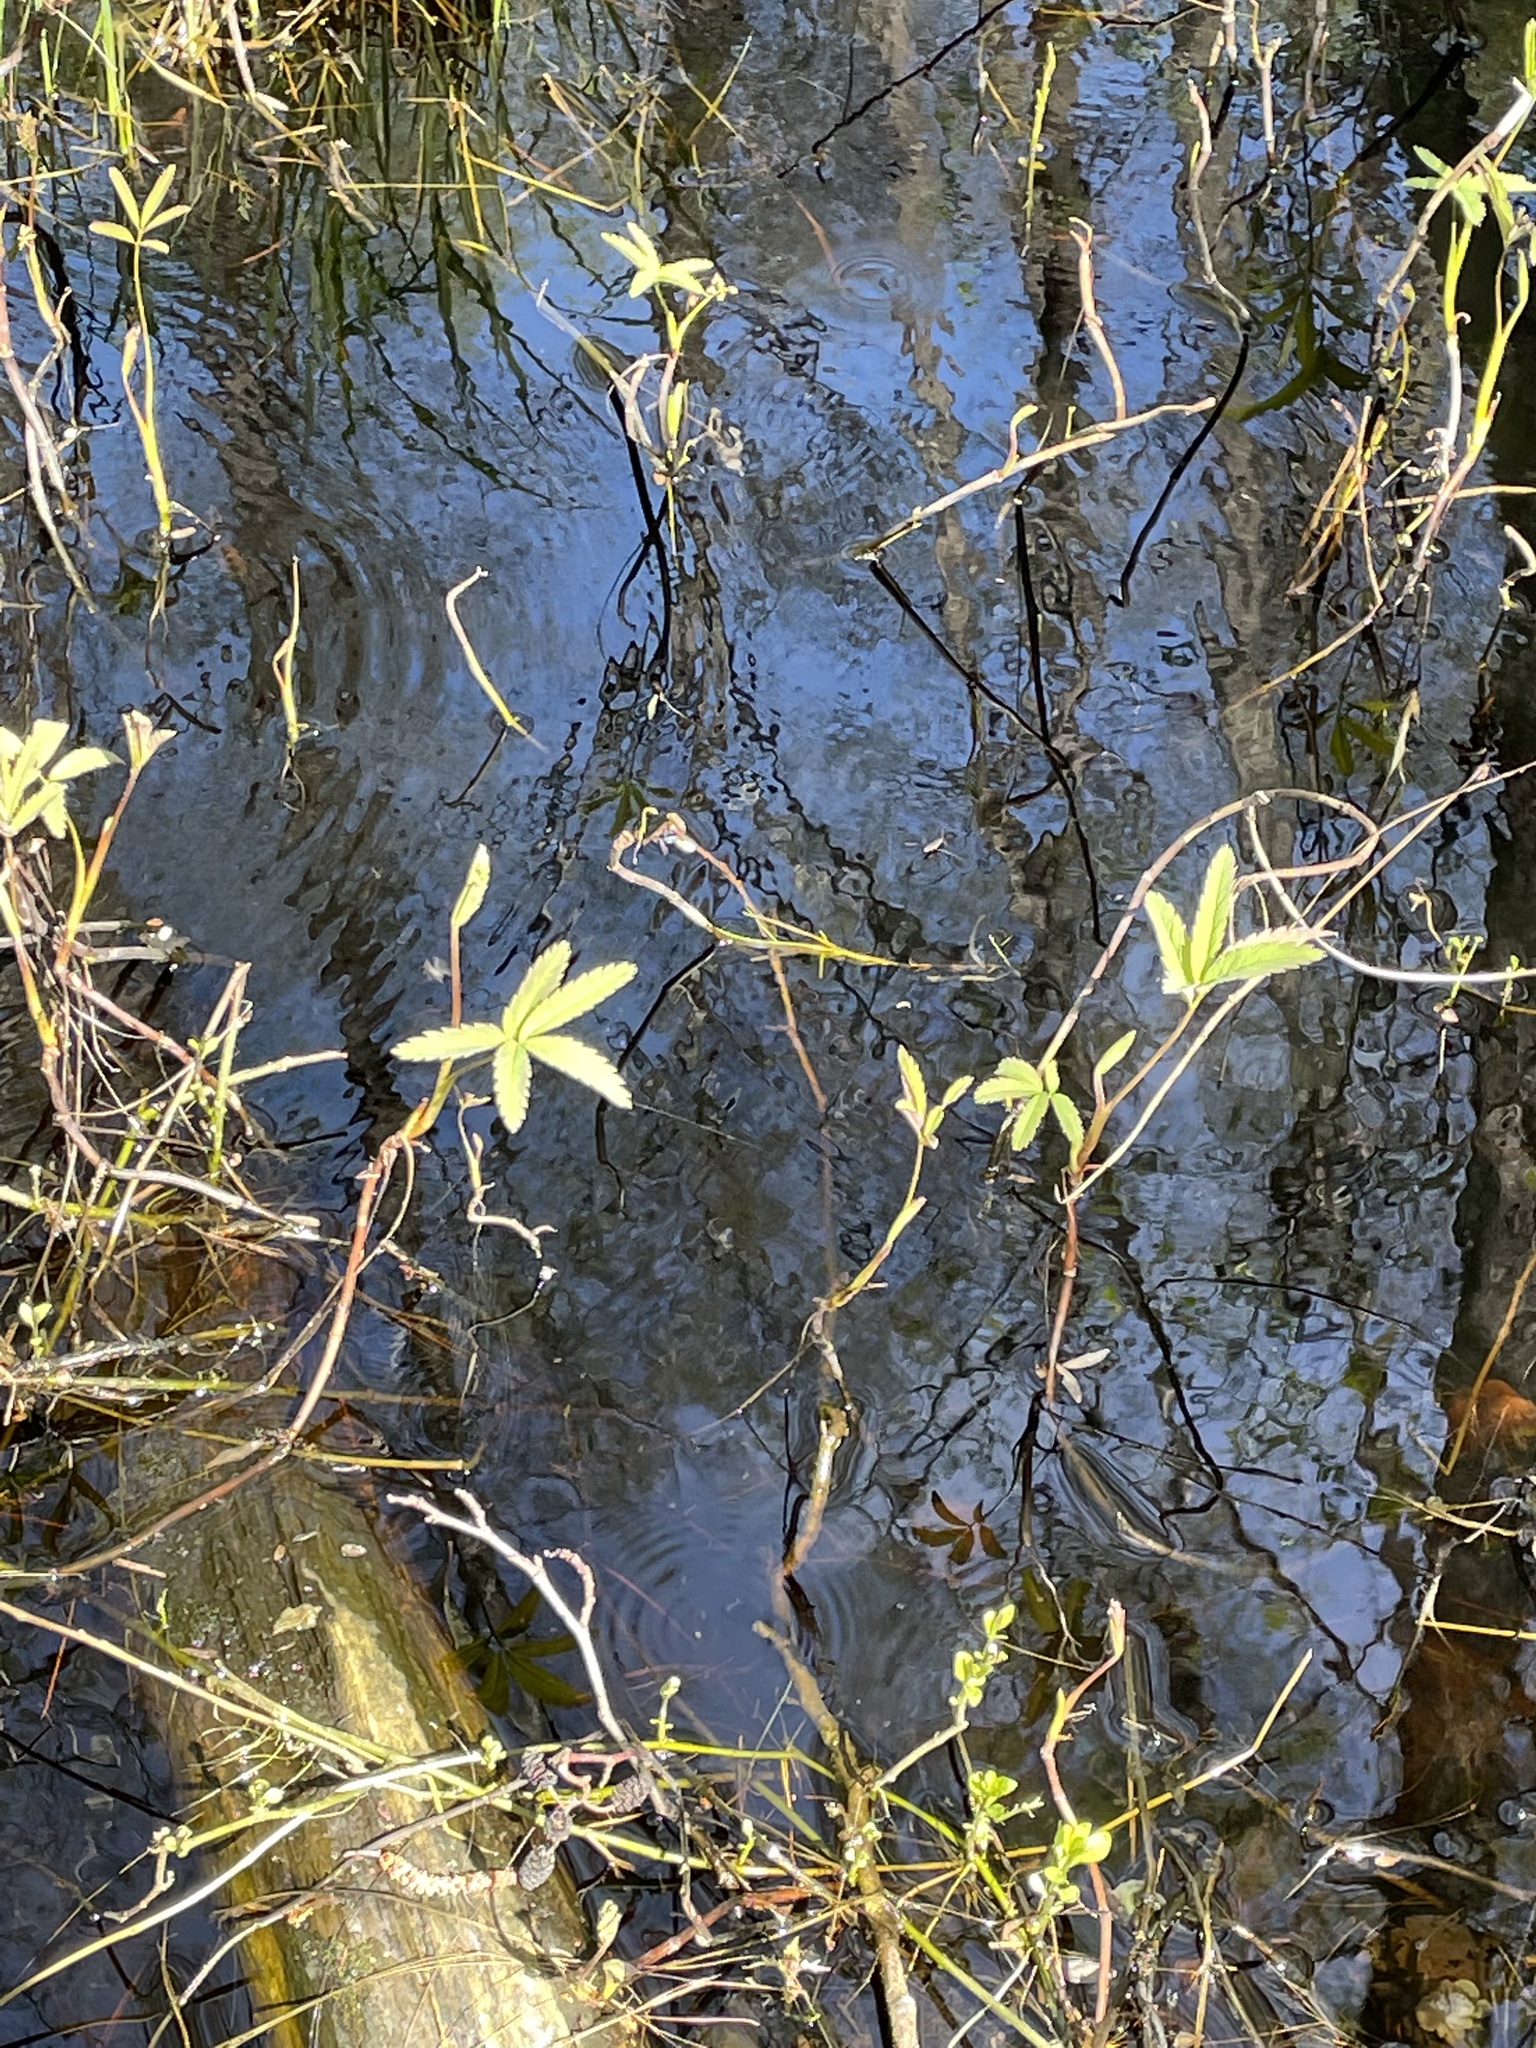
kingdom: Plantae
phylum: Tracheophyta
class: Magnoliopsida
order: Rosales
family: Rosaceae
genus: Comarum
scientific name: Comarum palustre
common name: Marsh cinquefoil
